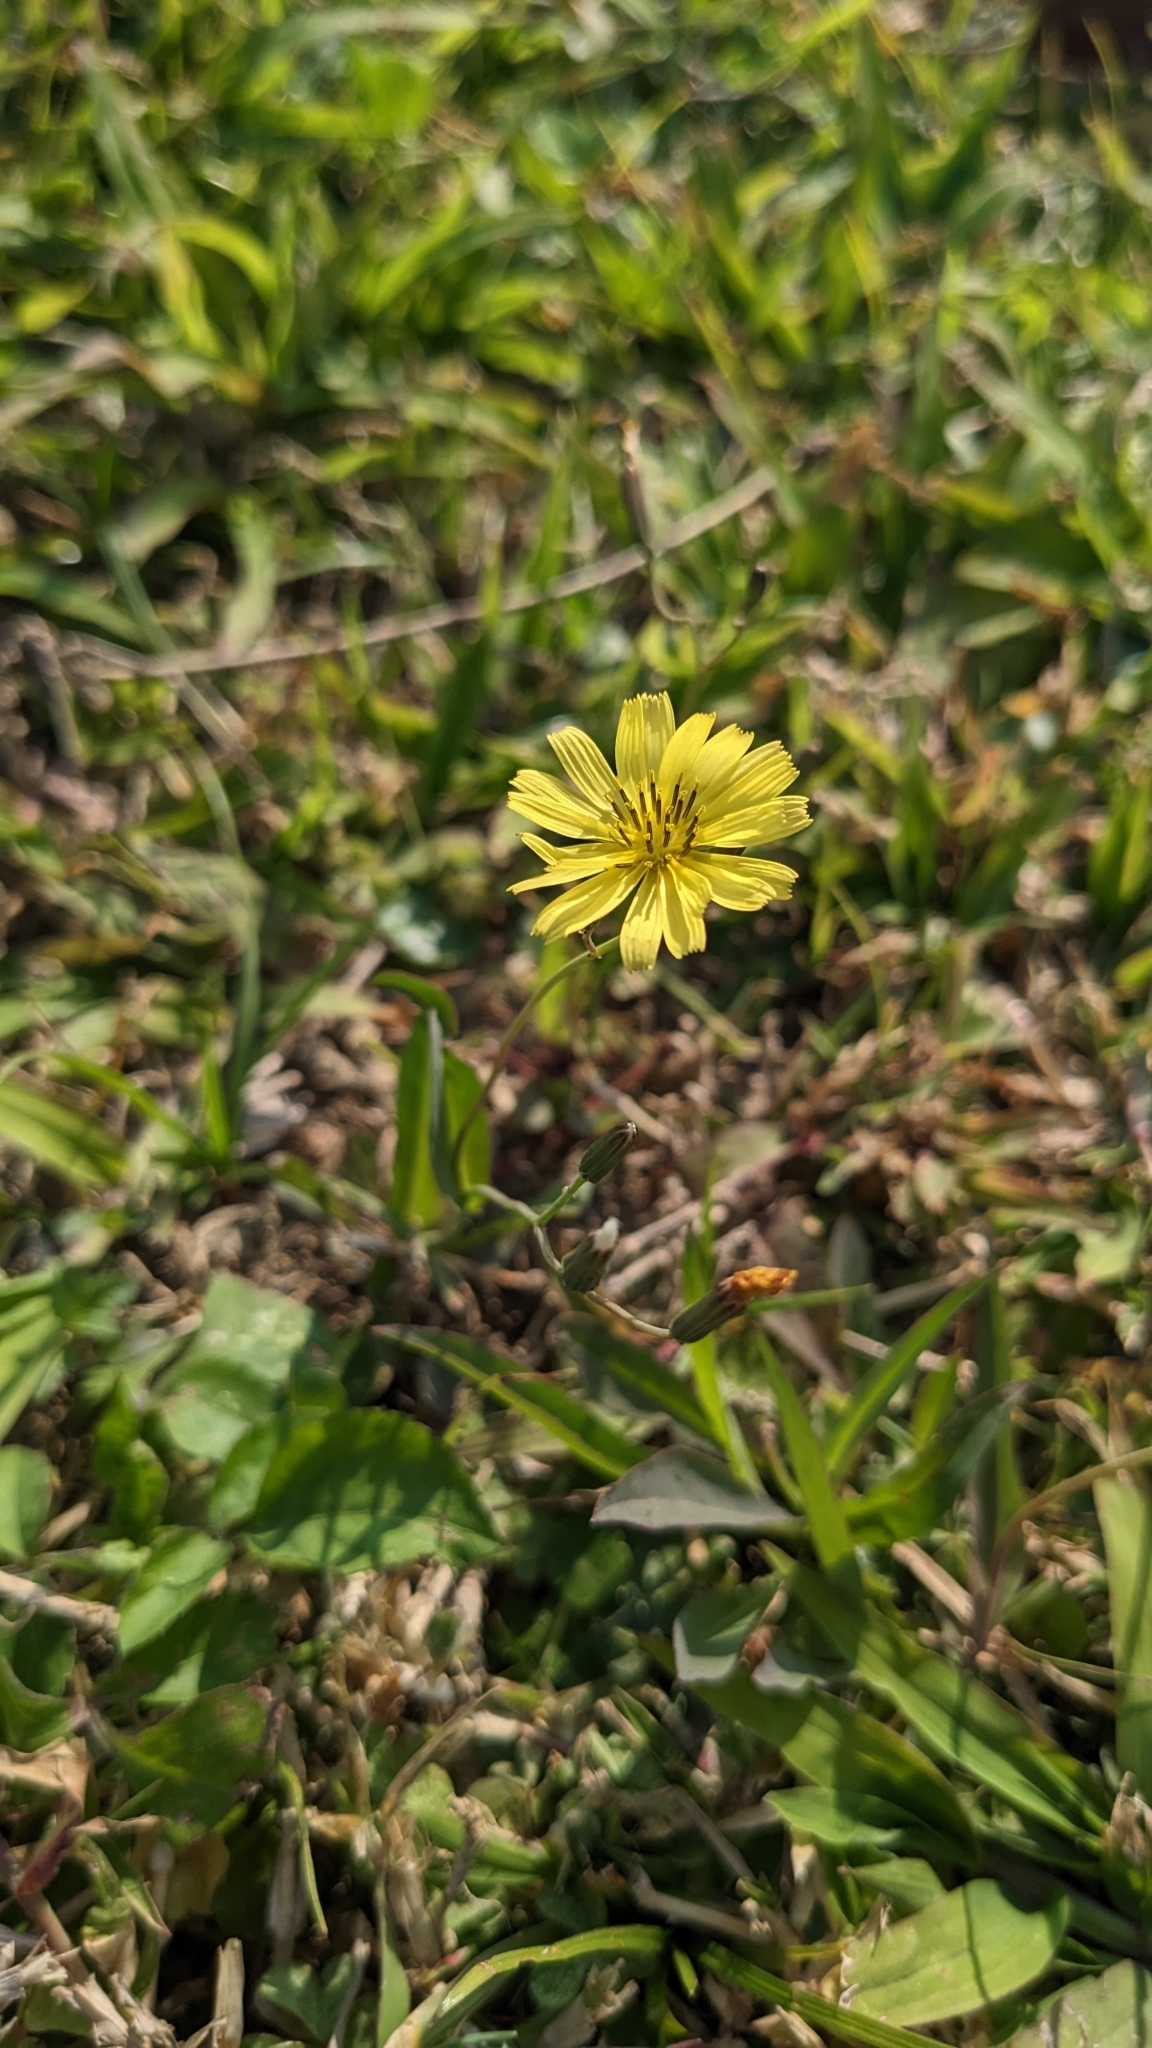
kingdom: Plantae
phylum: Tracheophyta
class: Magnoliopsida
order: Asterales
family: Asteraceae
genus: Ixeris
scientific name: Ixeris chinensis
